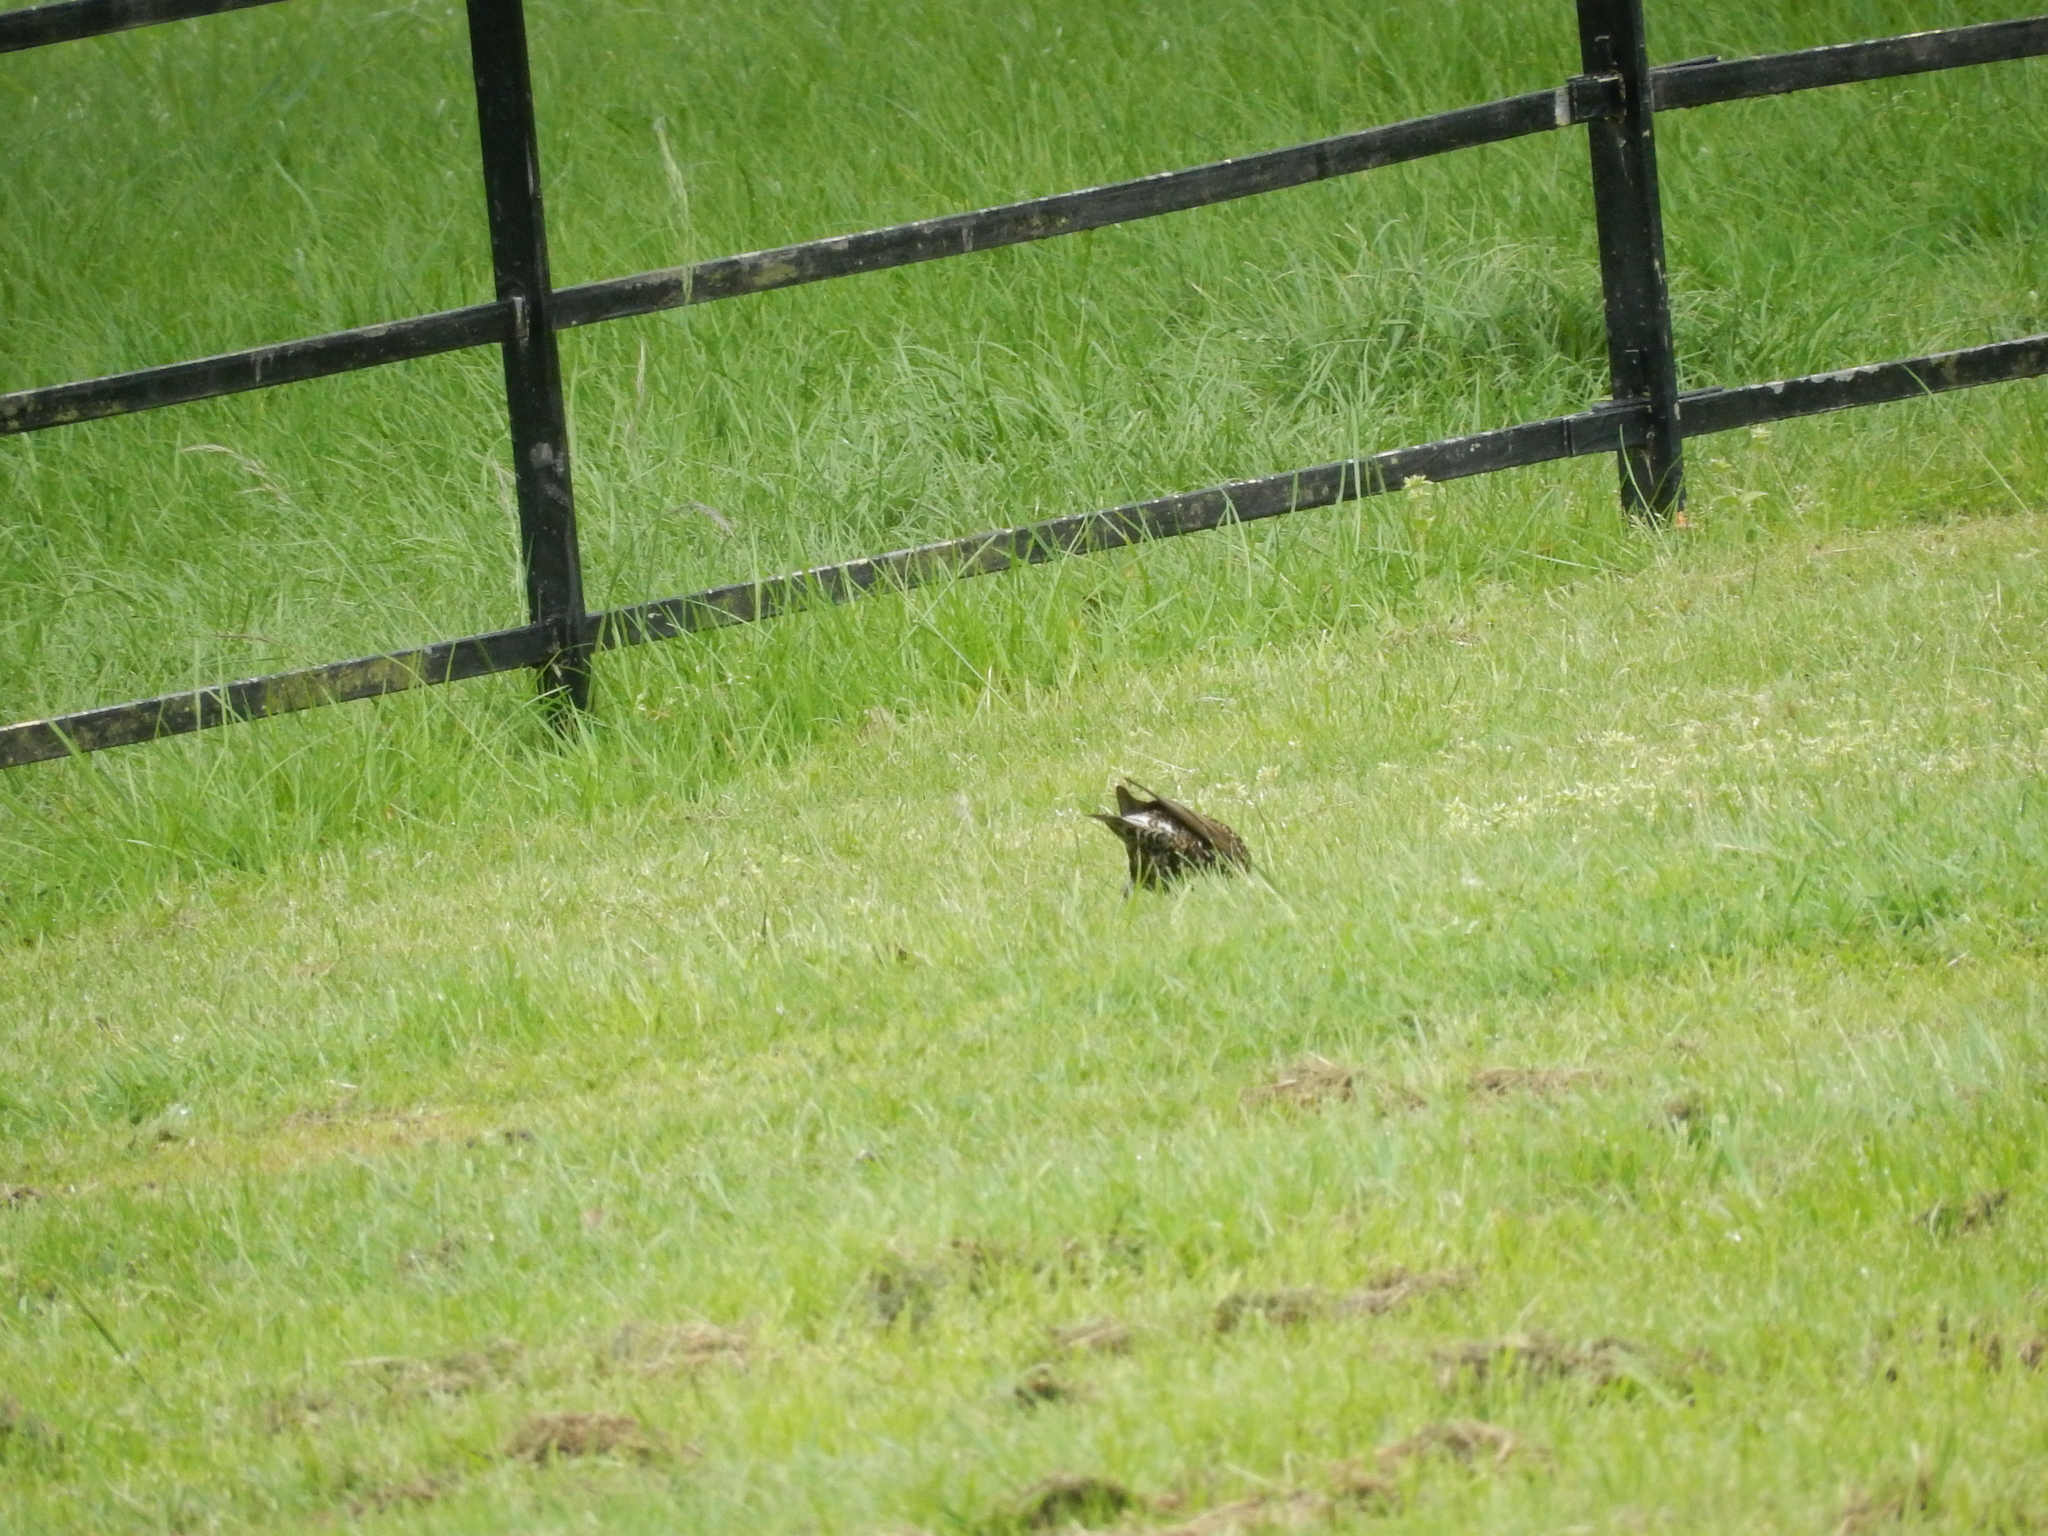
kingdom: Animalia
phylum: Chordata
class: Aves
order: Passeriformes
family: Sturnidae
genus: Sturnus
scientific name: Sturnus vulgaris
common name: Common starling
